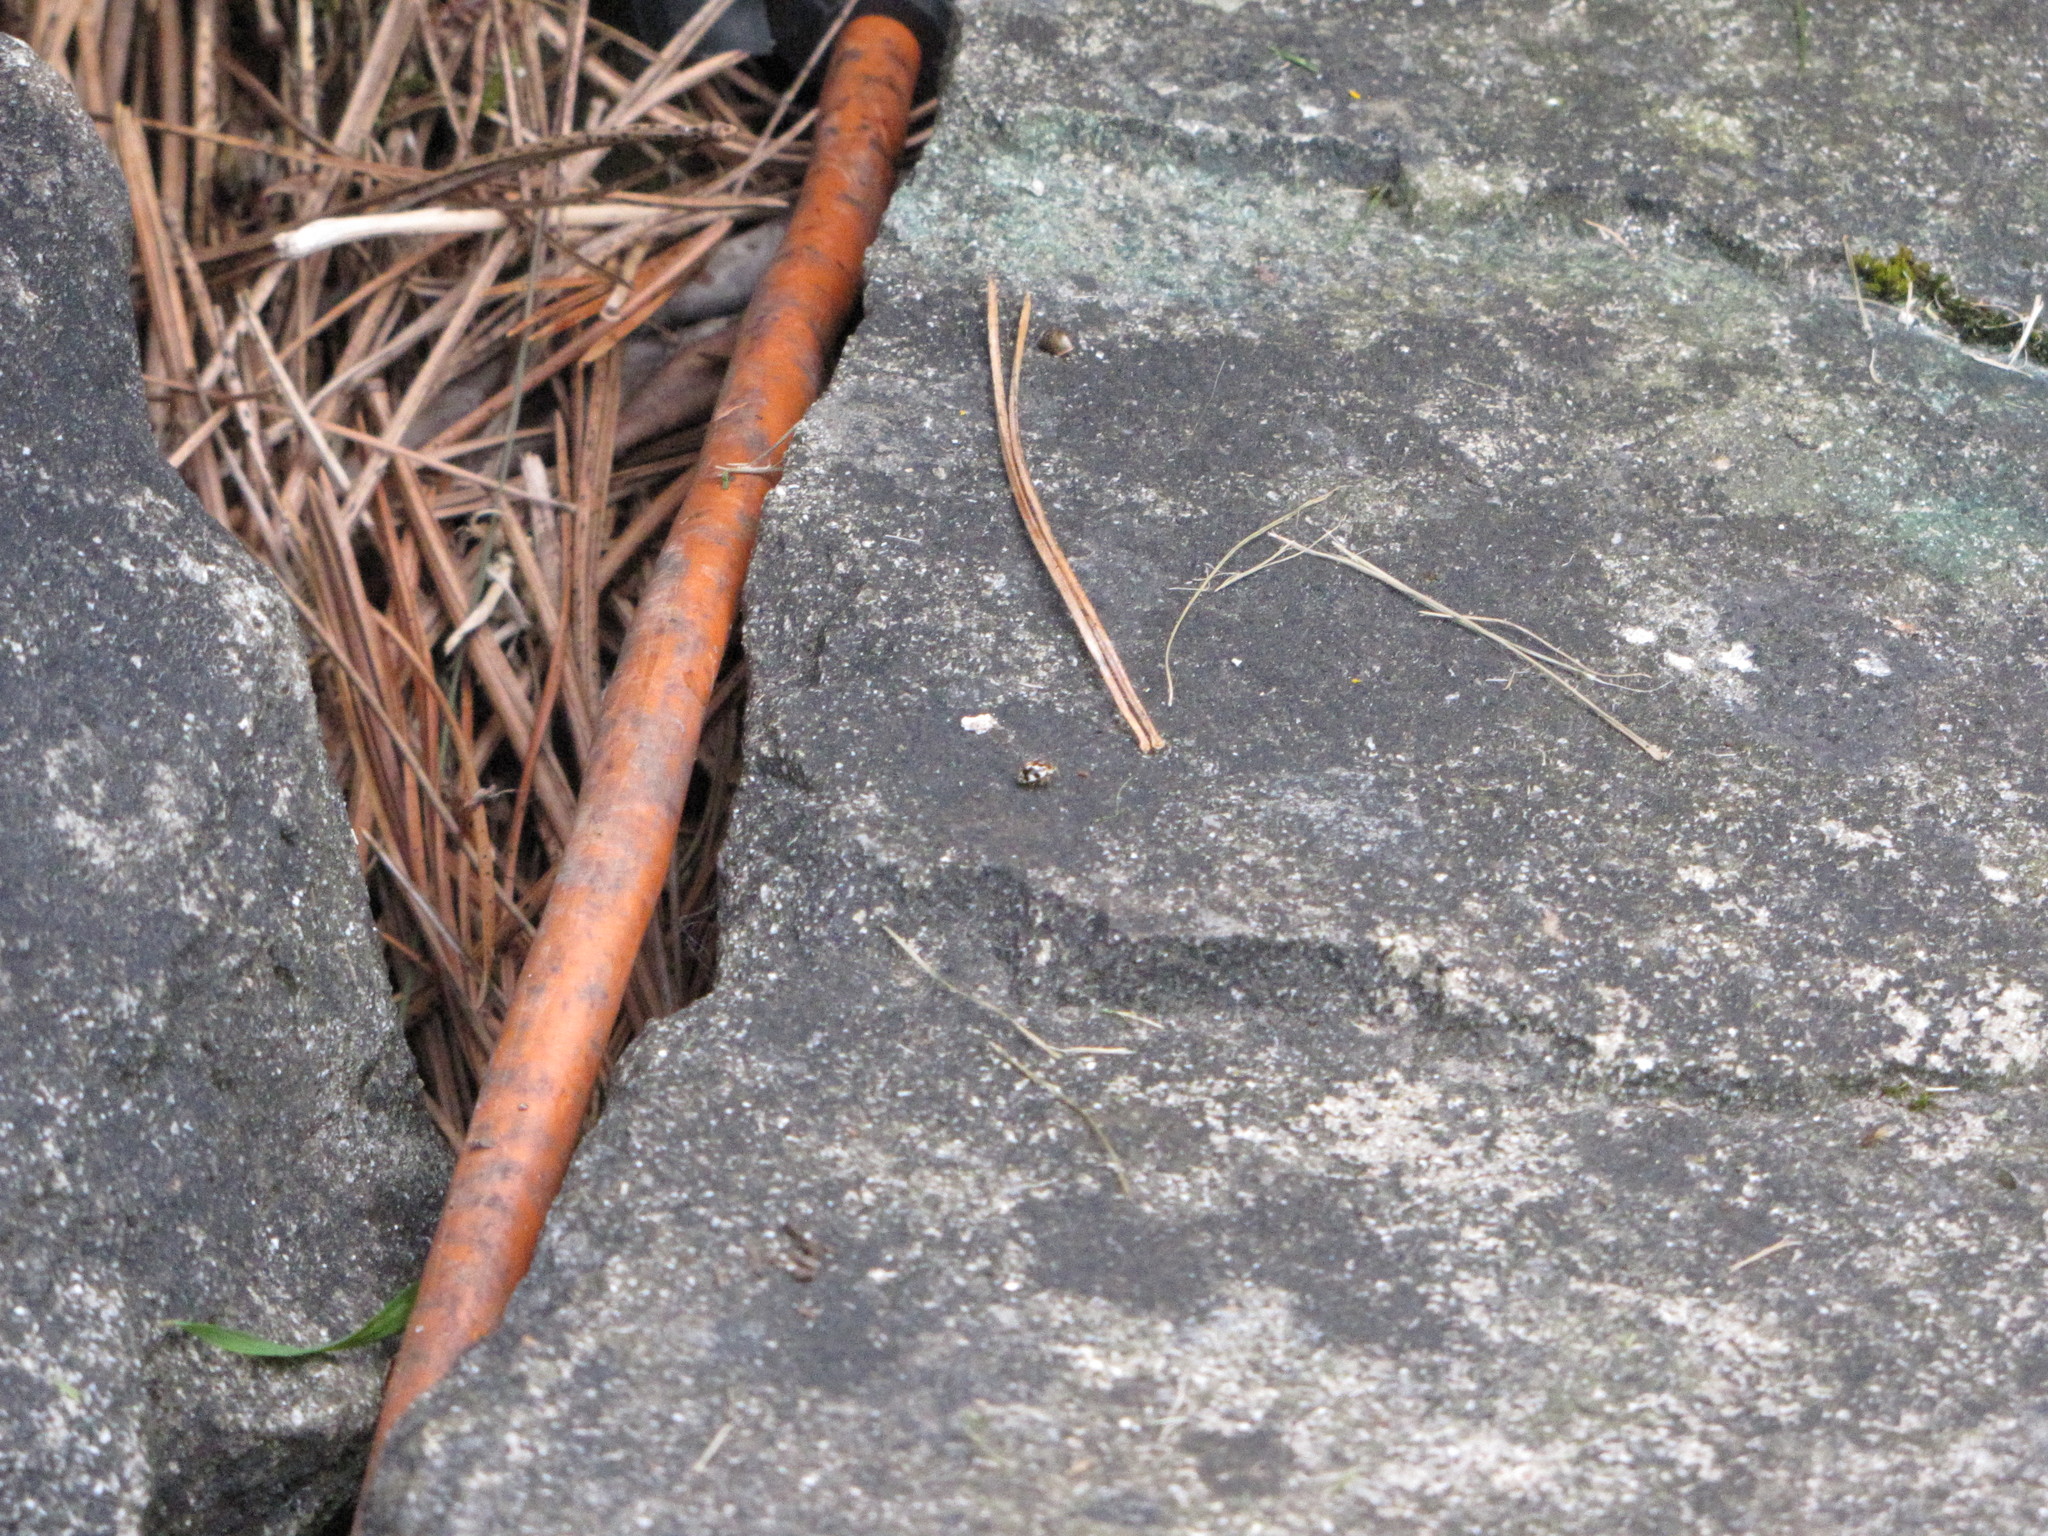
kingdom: Animalia
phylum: Arthropoda
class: Insecta
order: Coleoptera
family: Coccinellidae
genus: Psyllobora
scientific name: Psyllobora vigintimaculata
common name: Ladybird beetle
